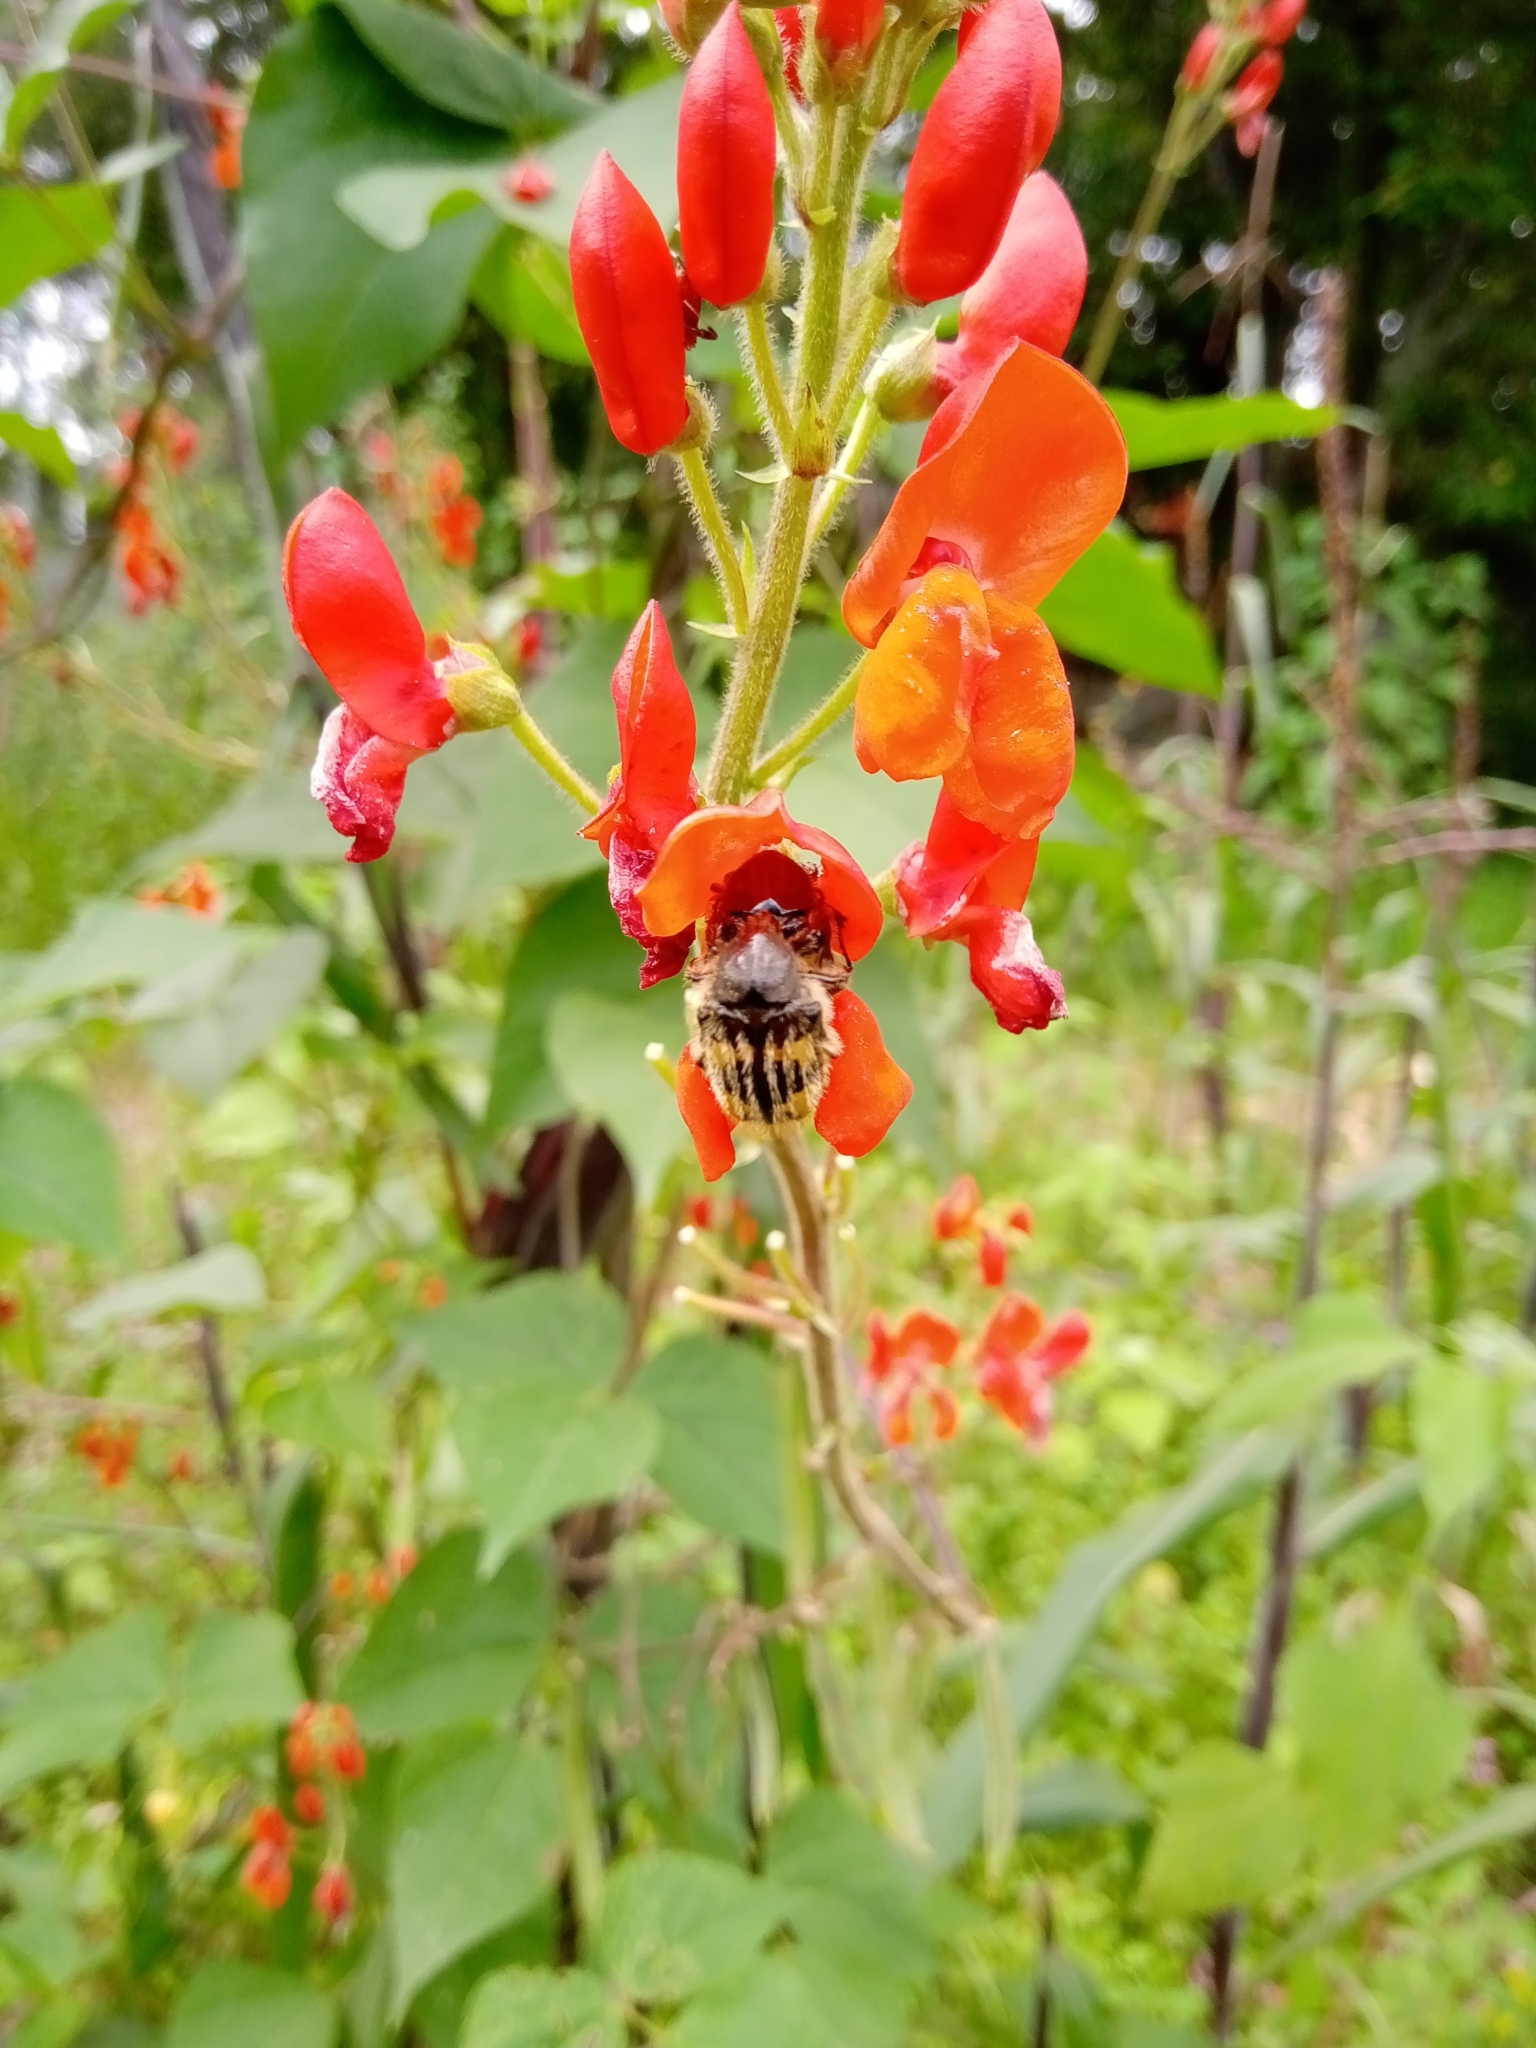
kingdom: Animalia
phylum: Arthropoda
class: Insecta
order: Coleoptera
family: Scarabaeidae
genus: Euphoria
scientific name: Euphoria basalis
